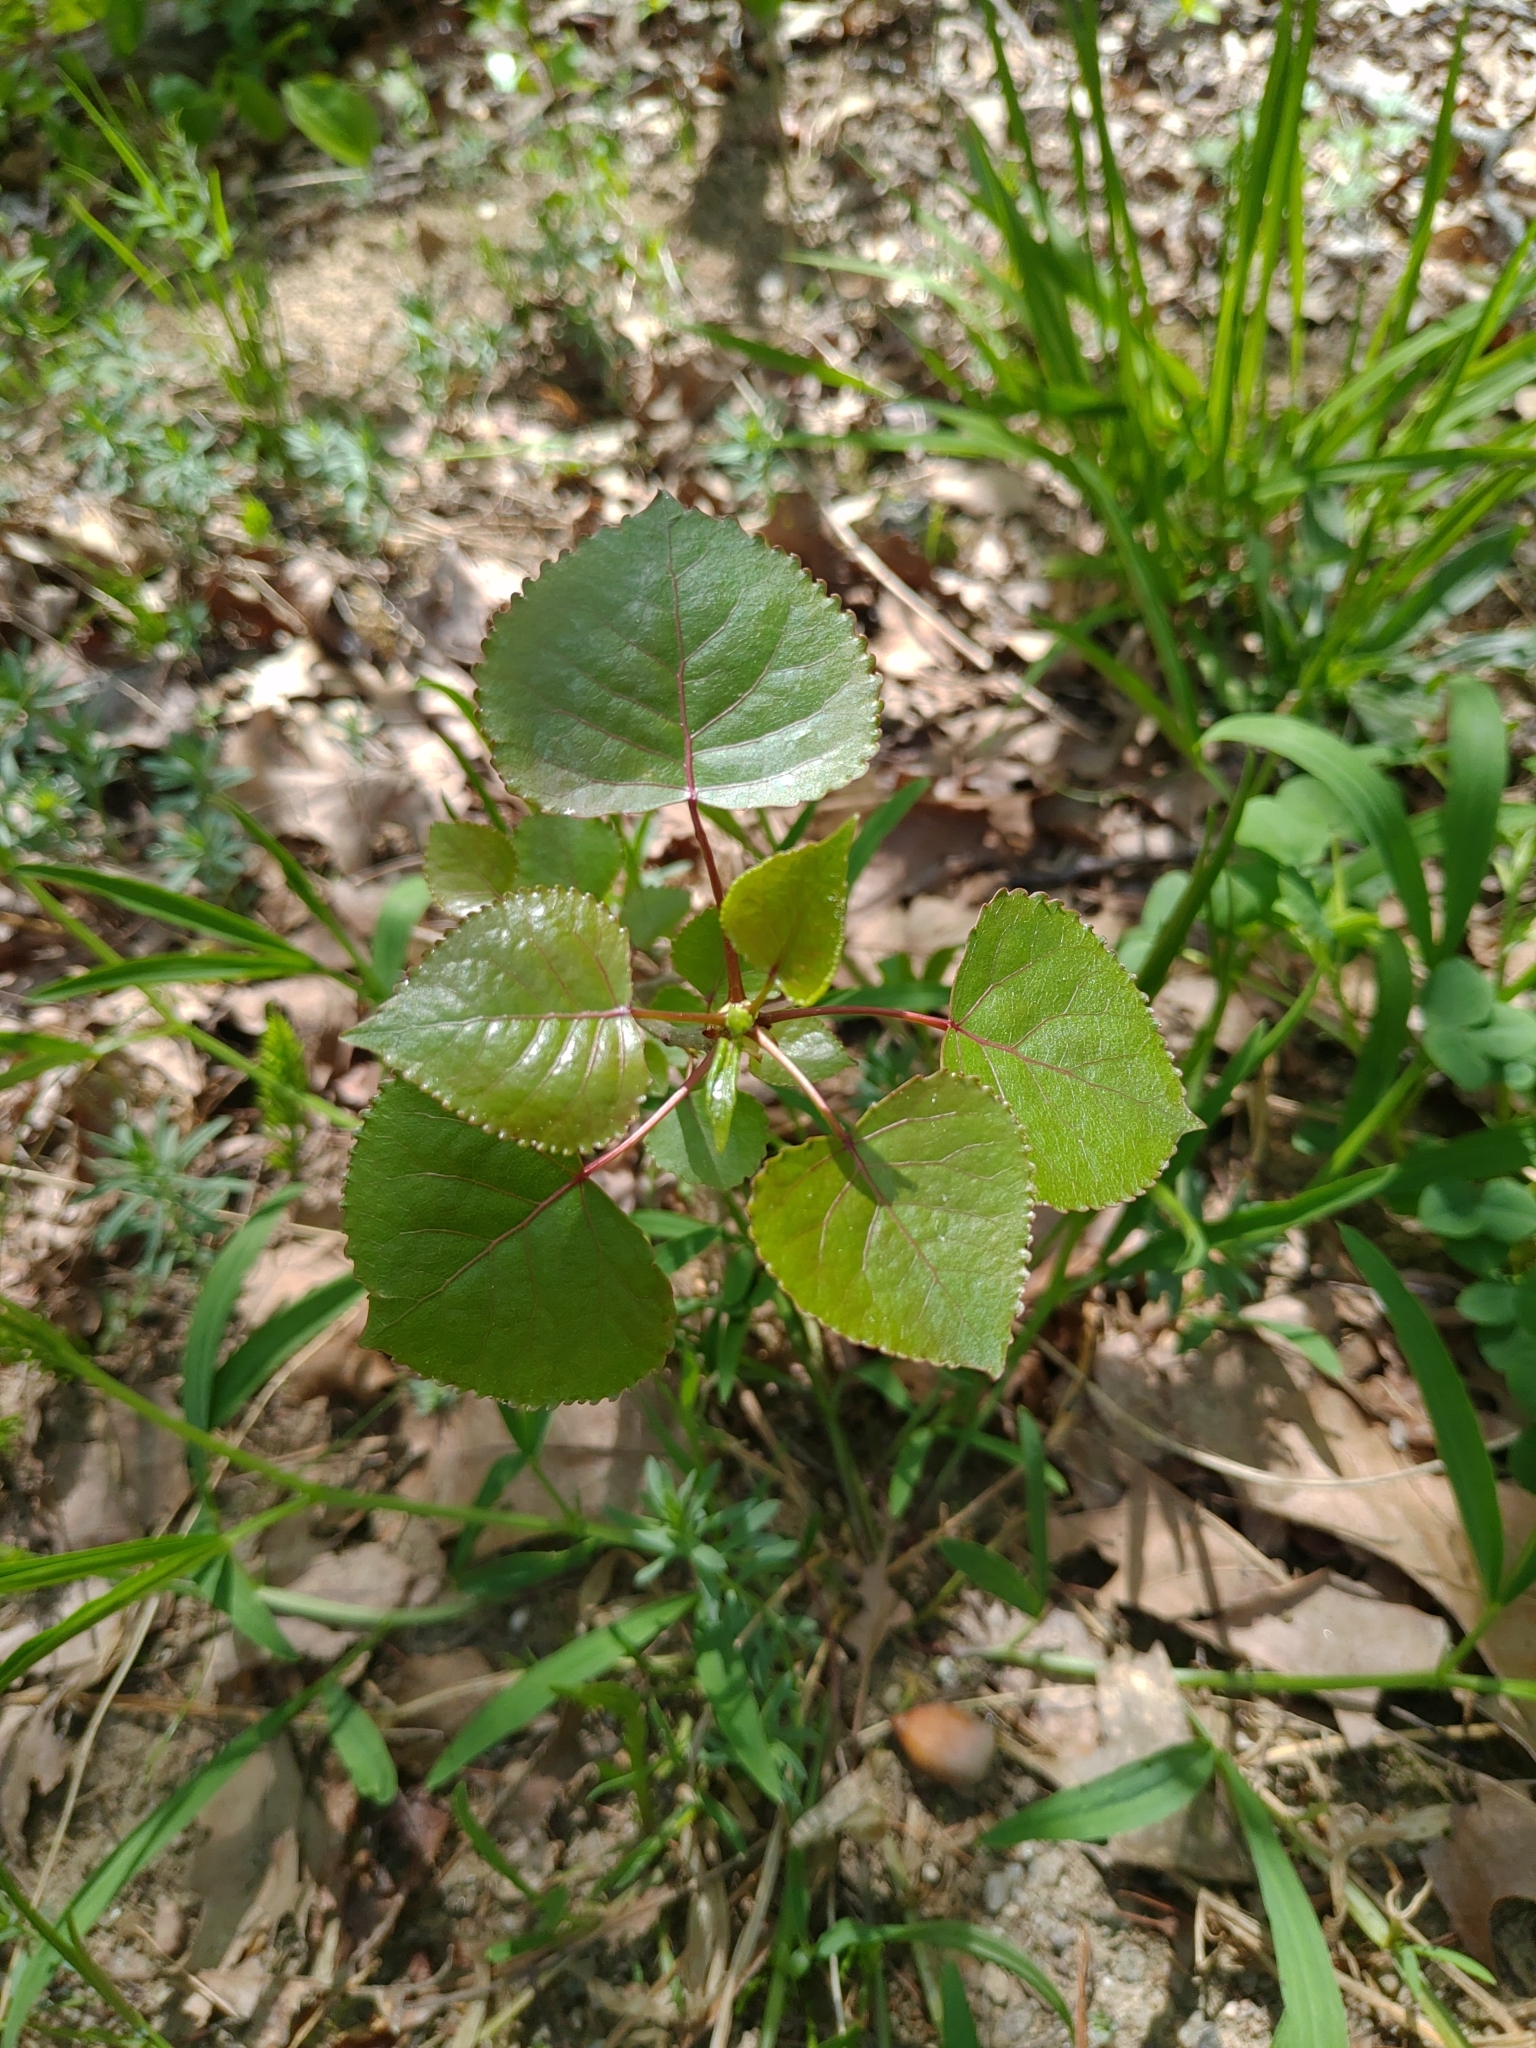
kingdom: Plantae
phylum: Tracheophyta
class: Magnoliopsida
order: Malpighiales
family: Salicaceae
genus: Populus
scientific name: Populus deltoides
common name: Eastern cottonwood
